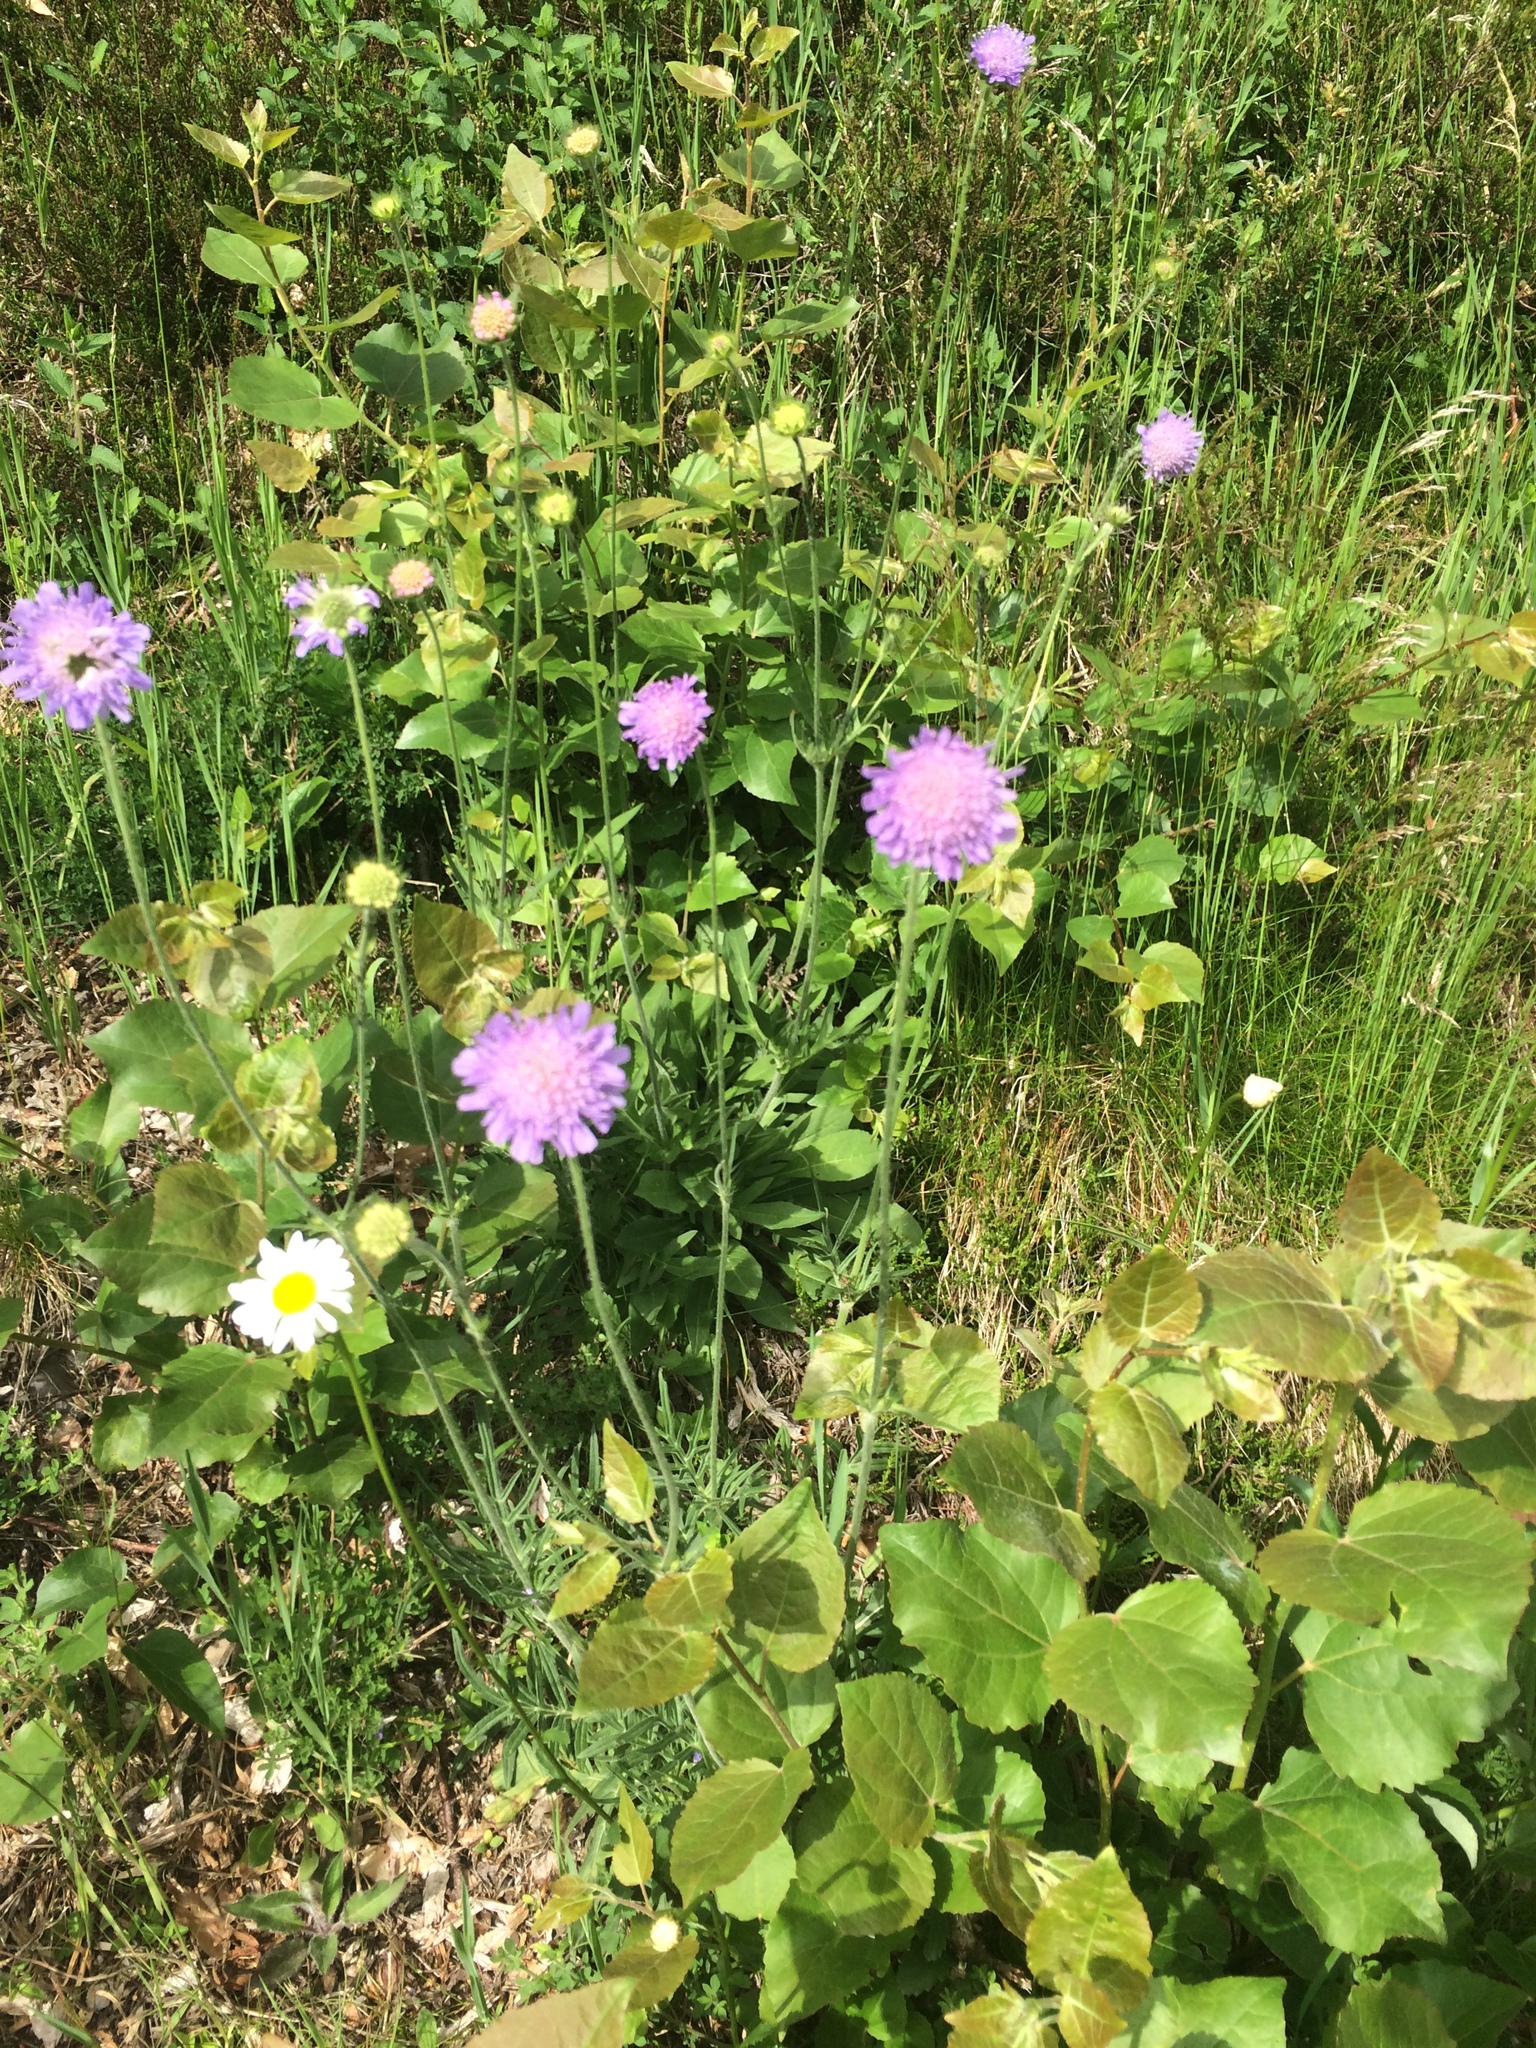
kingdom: Plantae
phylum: Tracheophyta
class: Magnoliopsida
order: Dipsacales
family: Caprifoliaceae
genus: Knautia
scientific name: Knautia arvensis
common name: Field scabiosa
